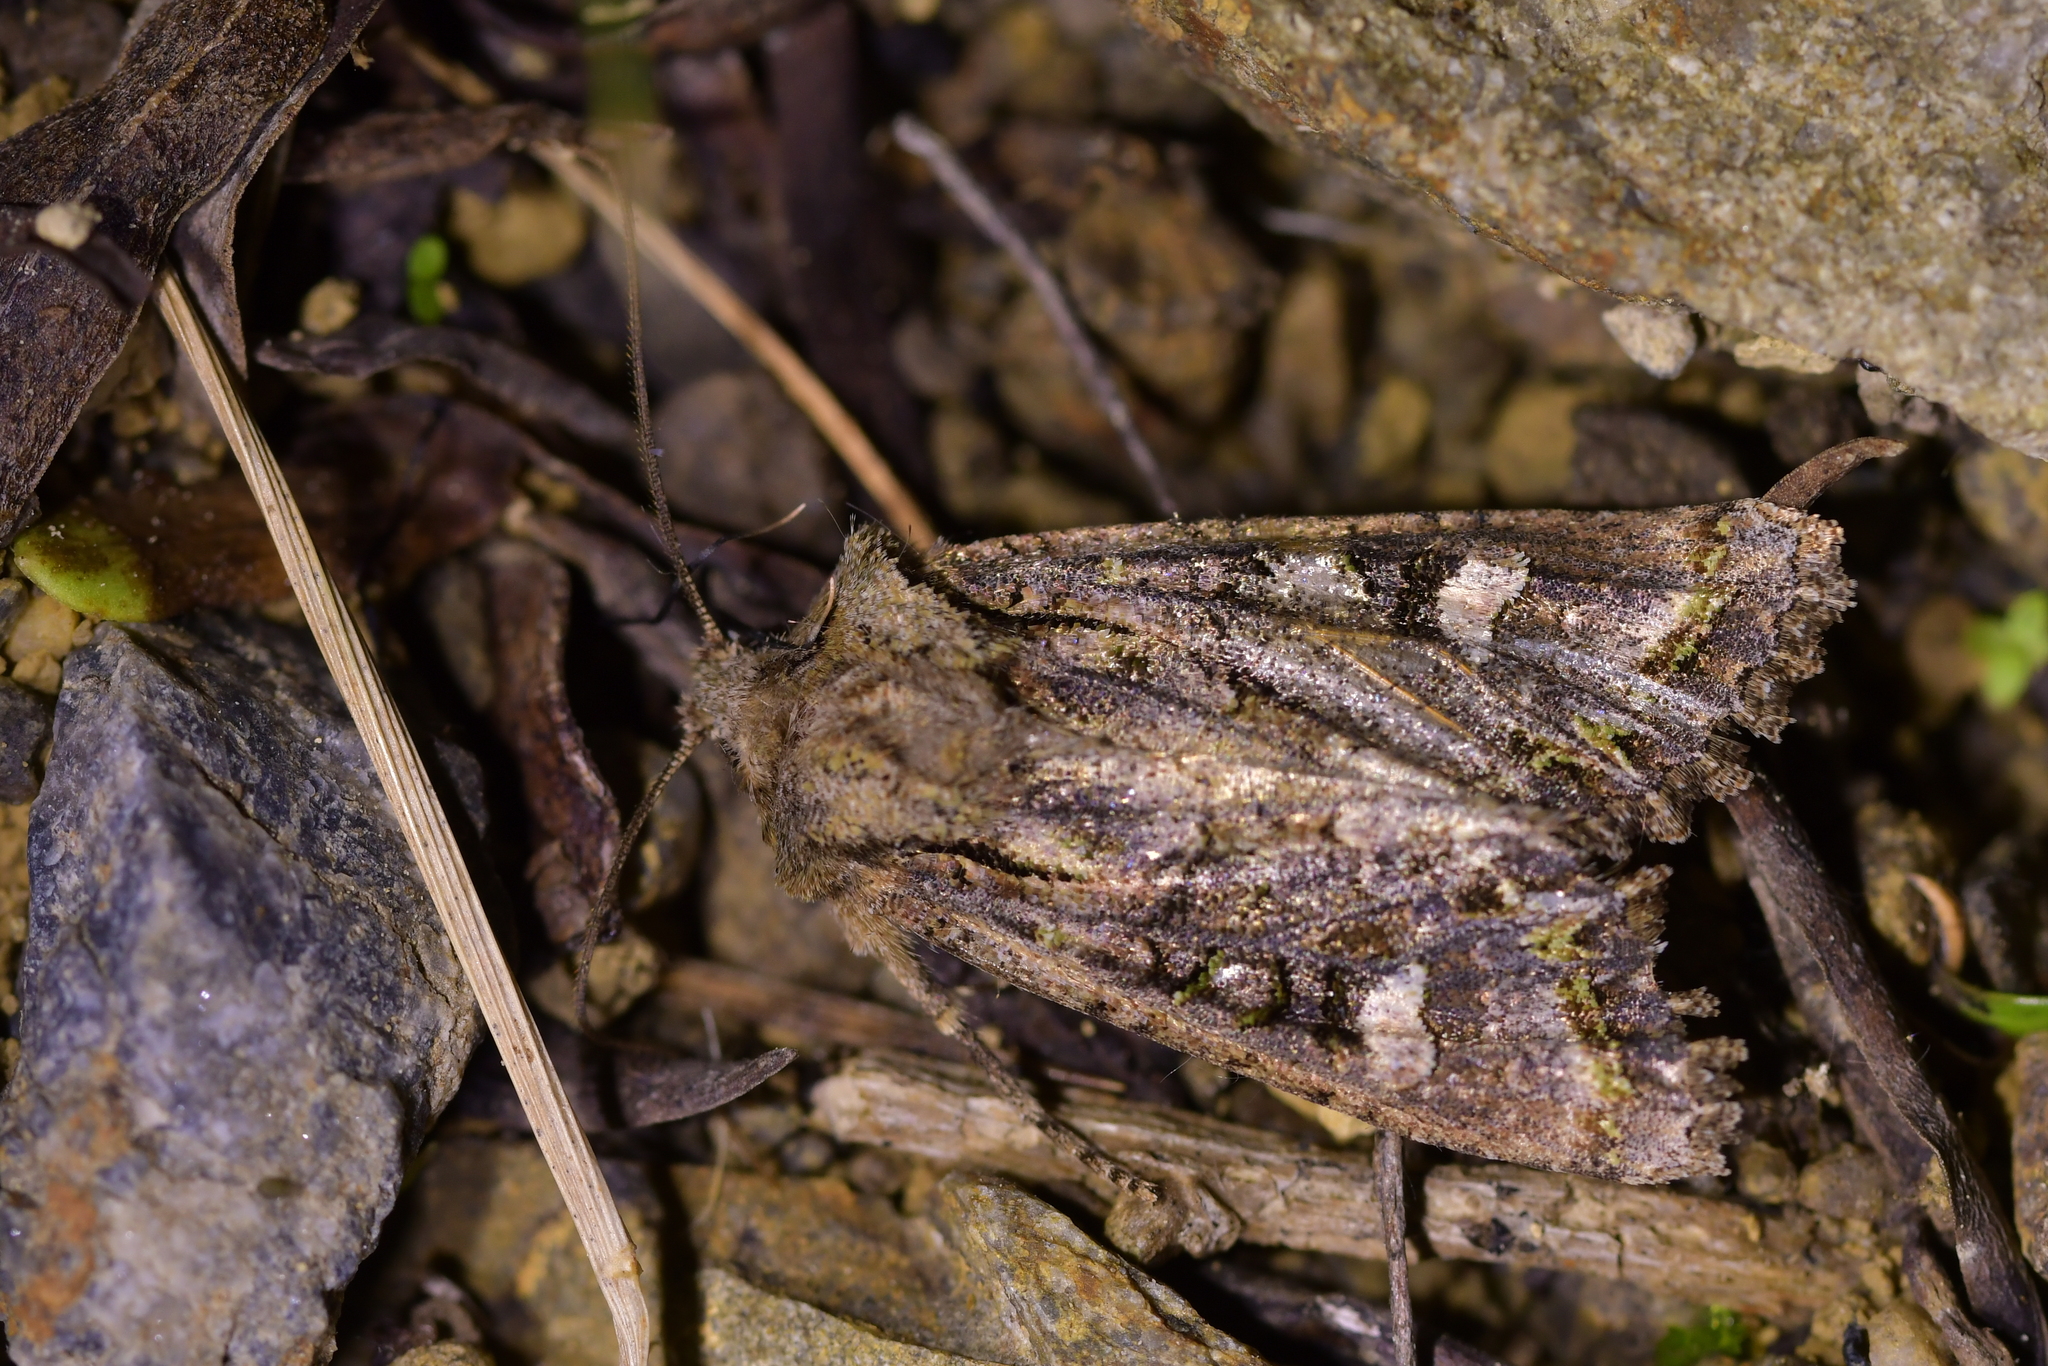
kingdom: Animalia
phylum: Arthropoda
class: Insecta
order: Lepidoptera
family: Noctuidae
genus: Ichneutica
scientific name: Ichneutica insignis
